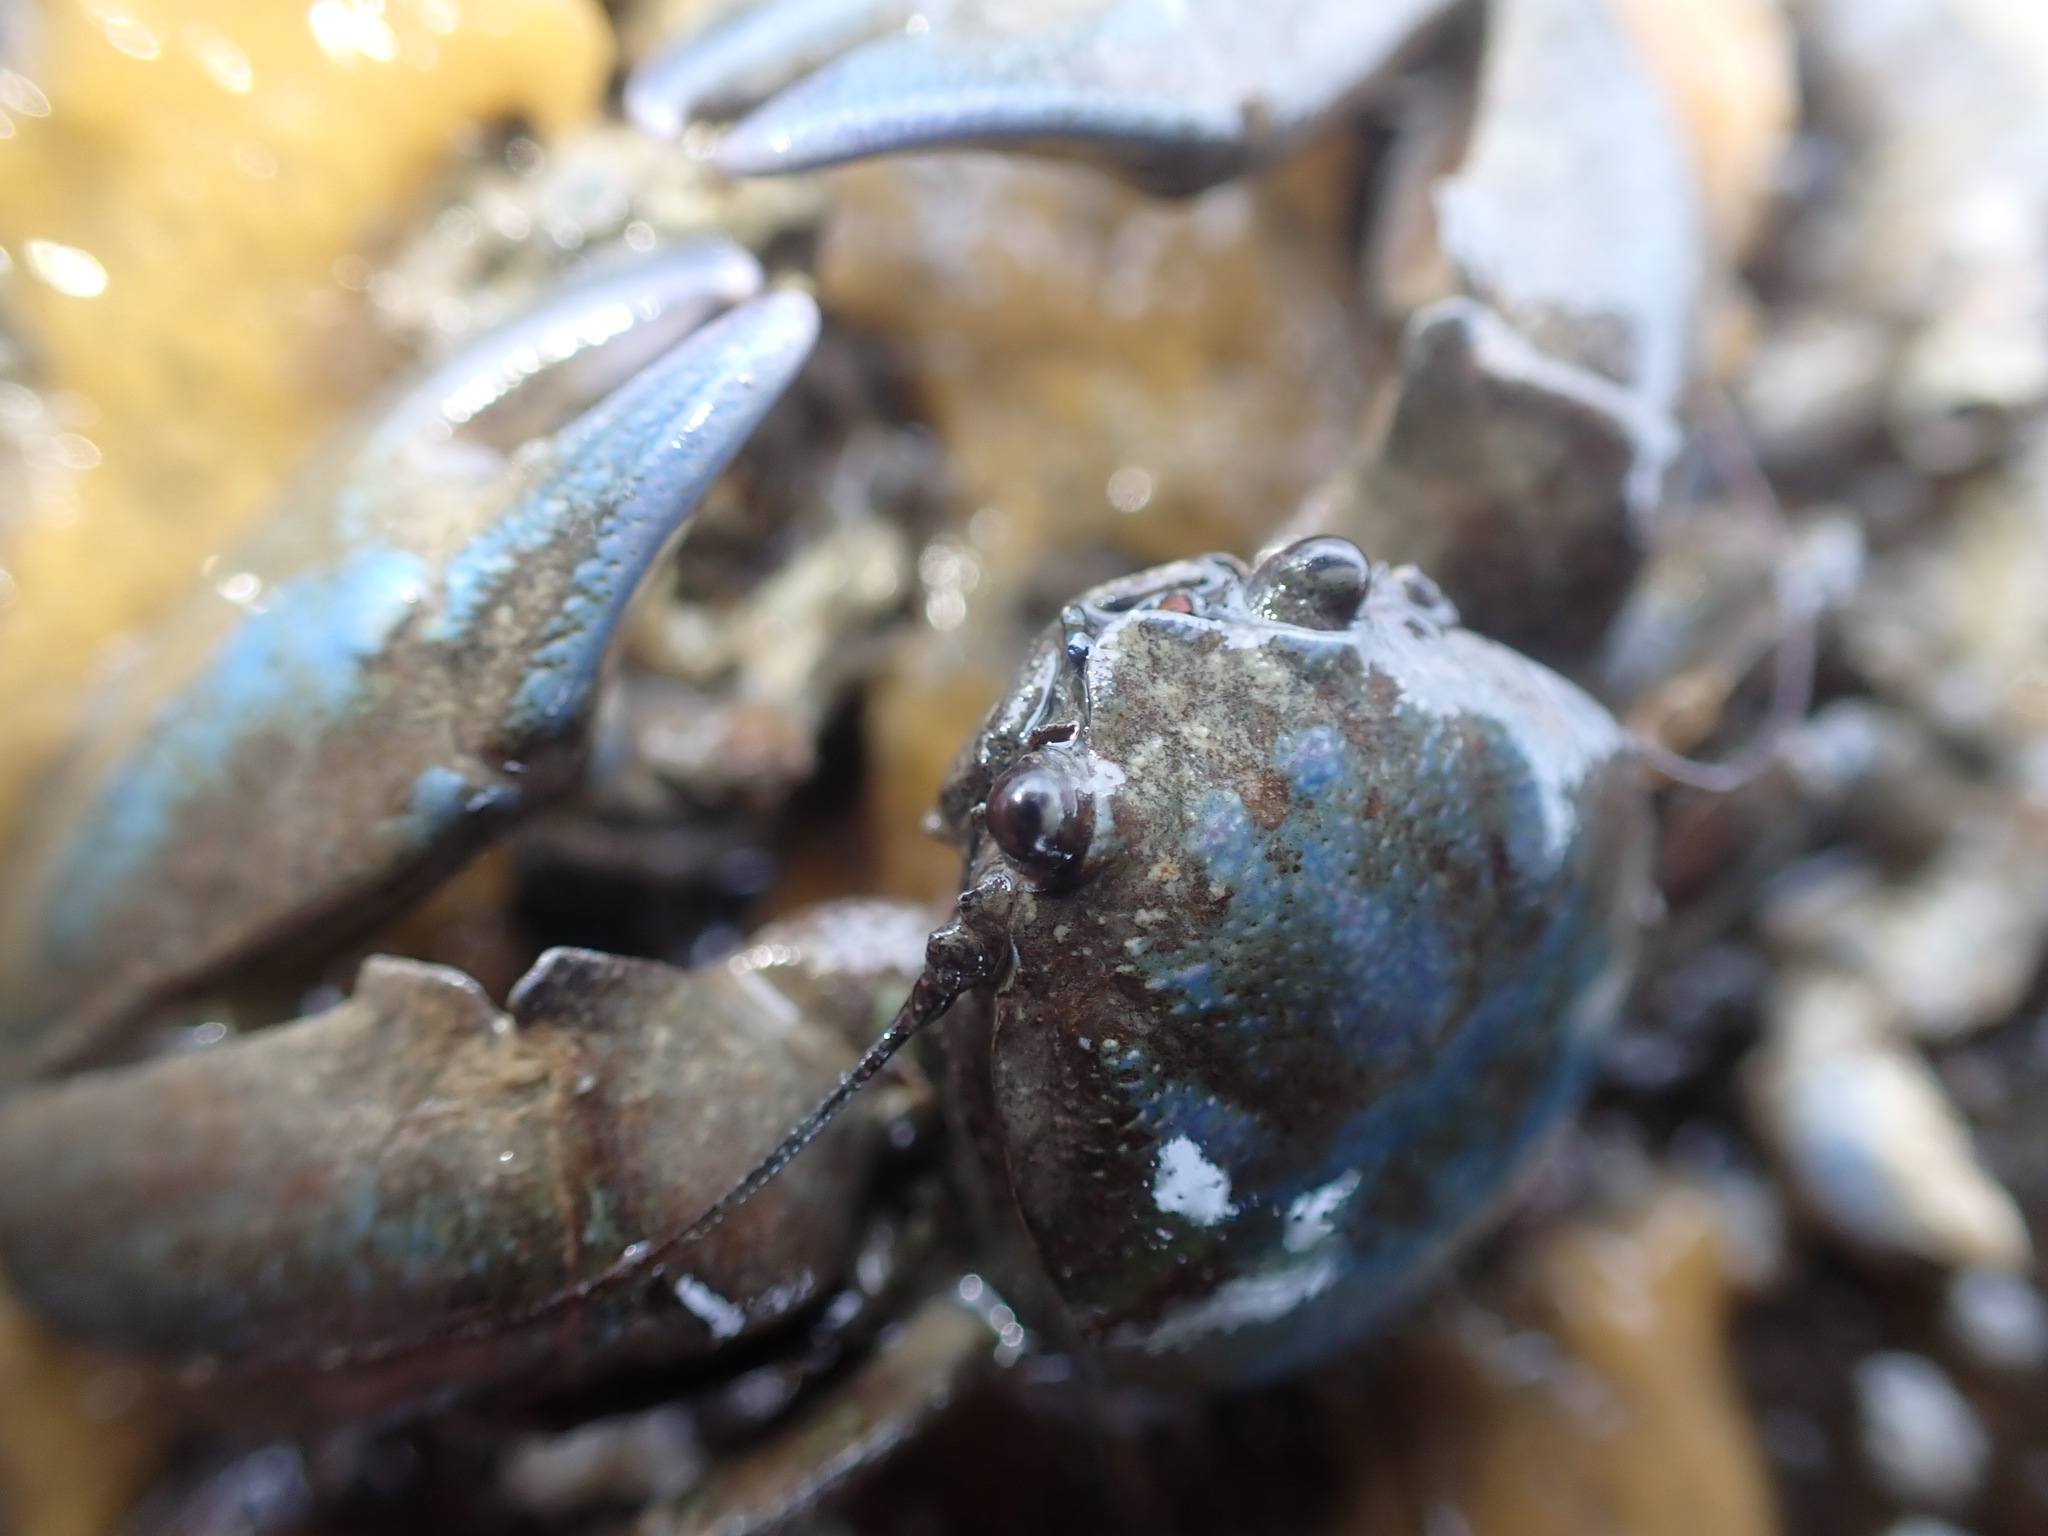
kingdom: Animalia
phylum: Arthropoda
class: Malacostraca
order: Decapoda
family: Porcellanidae
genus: Petrolisthes
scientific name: Petrolisthes elongatus
